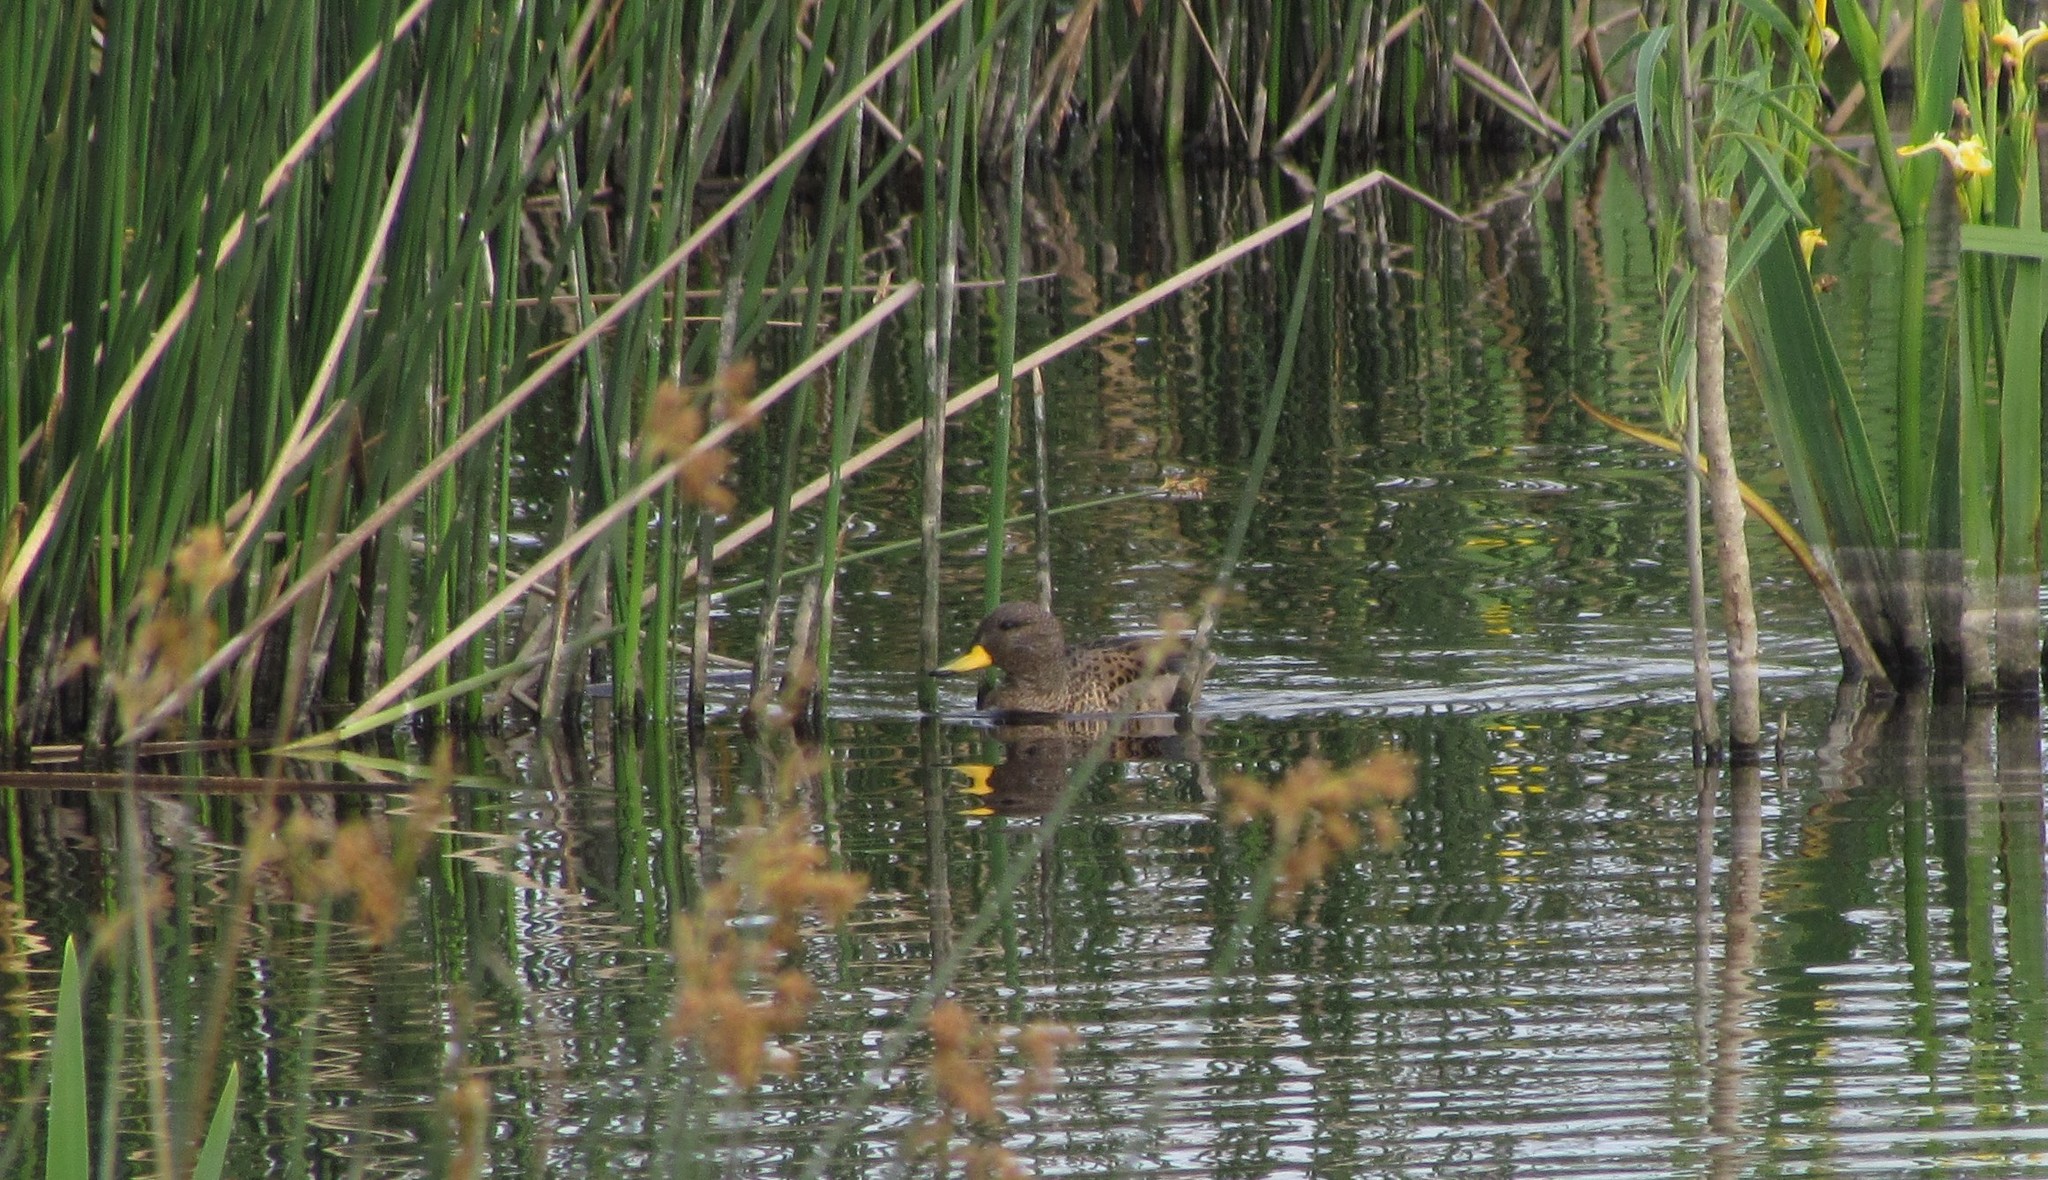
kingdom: Animalia
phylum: Chordata
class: Aves
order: Anseriformes
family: Anatidae
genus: Anas
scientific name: Anas flavirostris
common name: Yellow-billed teal
